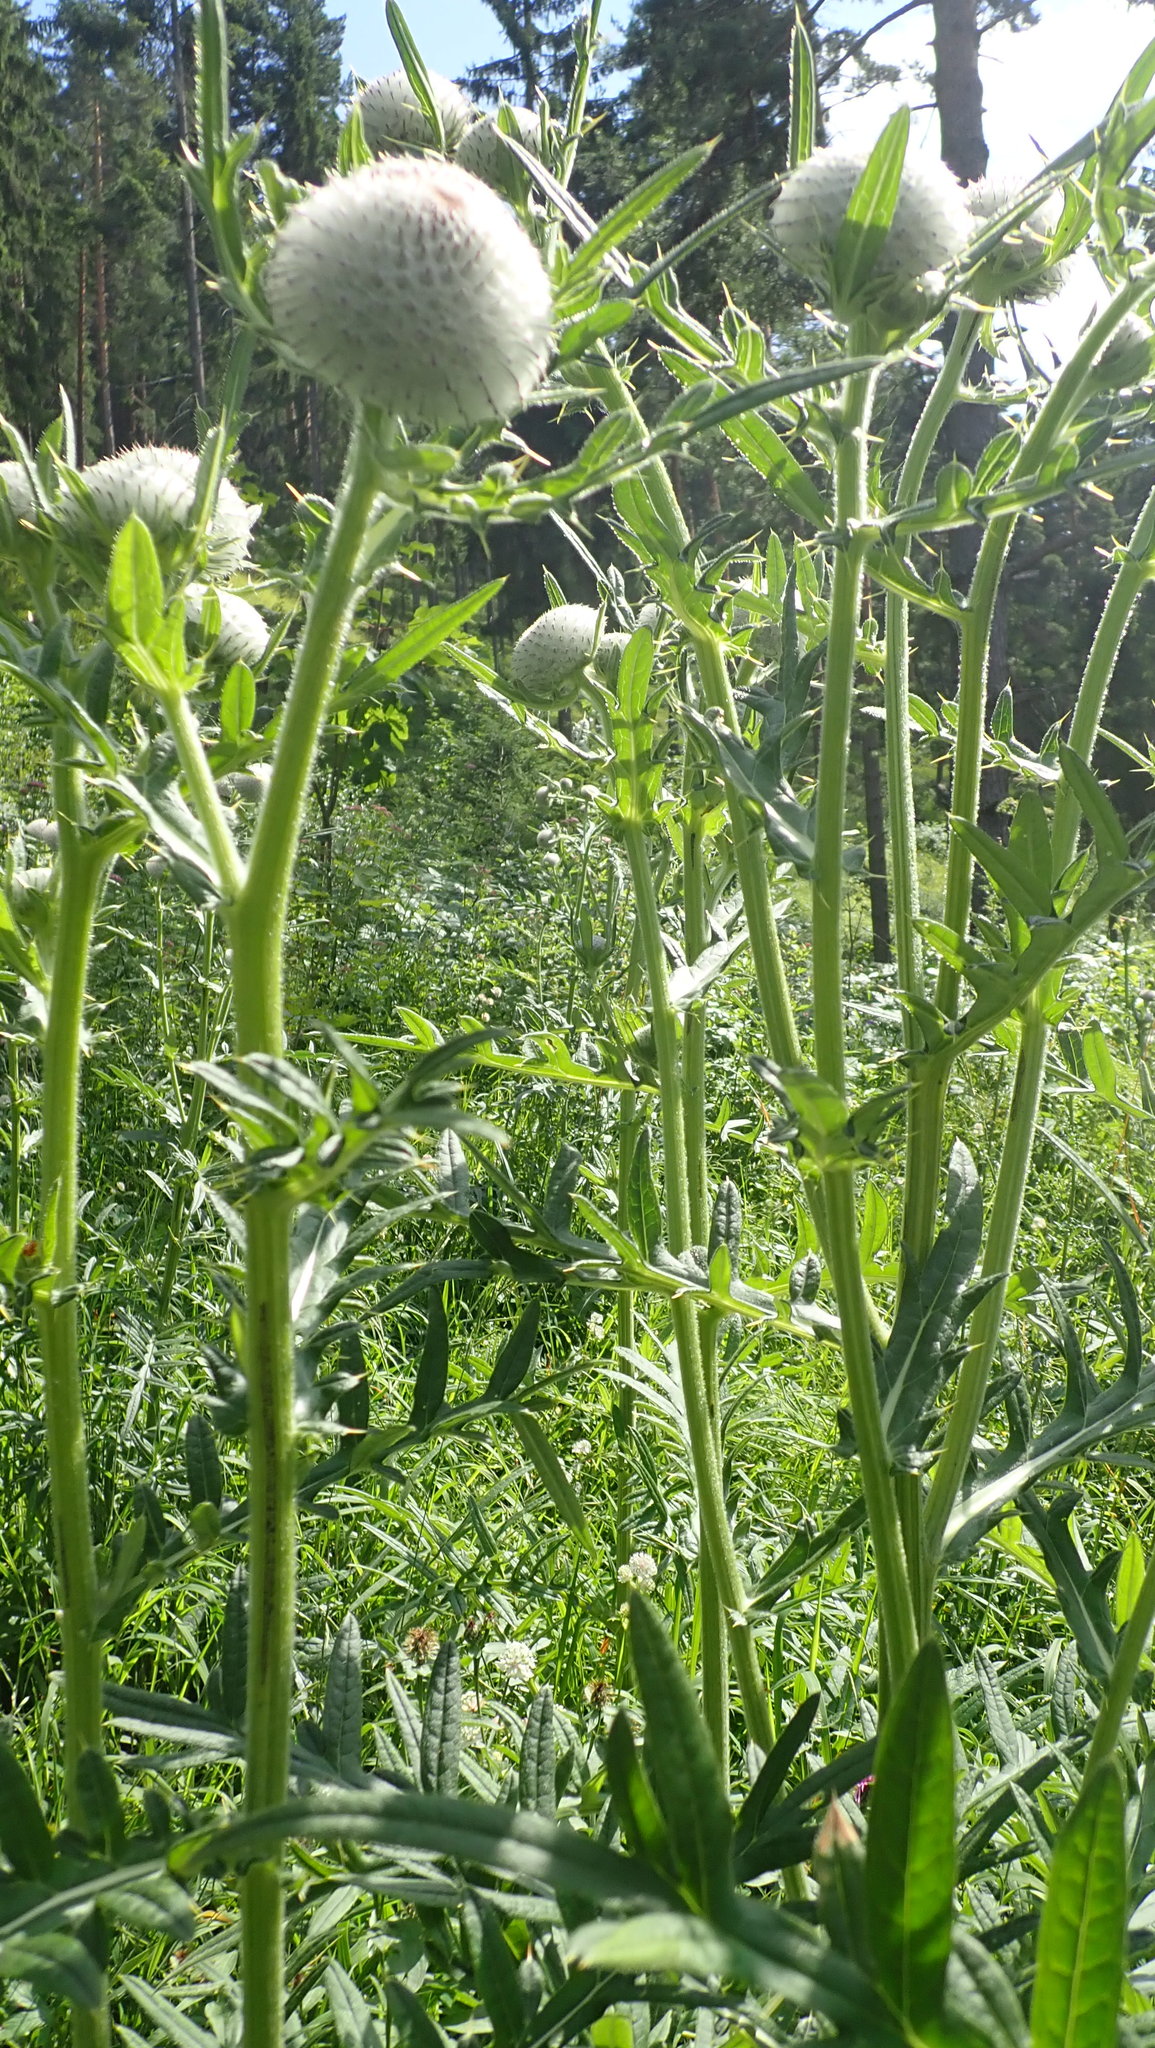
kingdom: Plantae
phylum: Tracheophyta
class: Magnoliopsida
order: Asterales
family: Asteraceae
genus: Lophiolepis
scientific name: Lophiolepis eriophora
